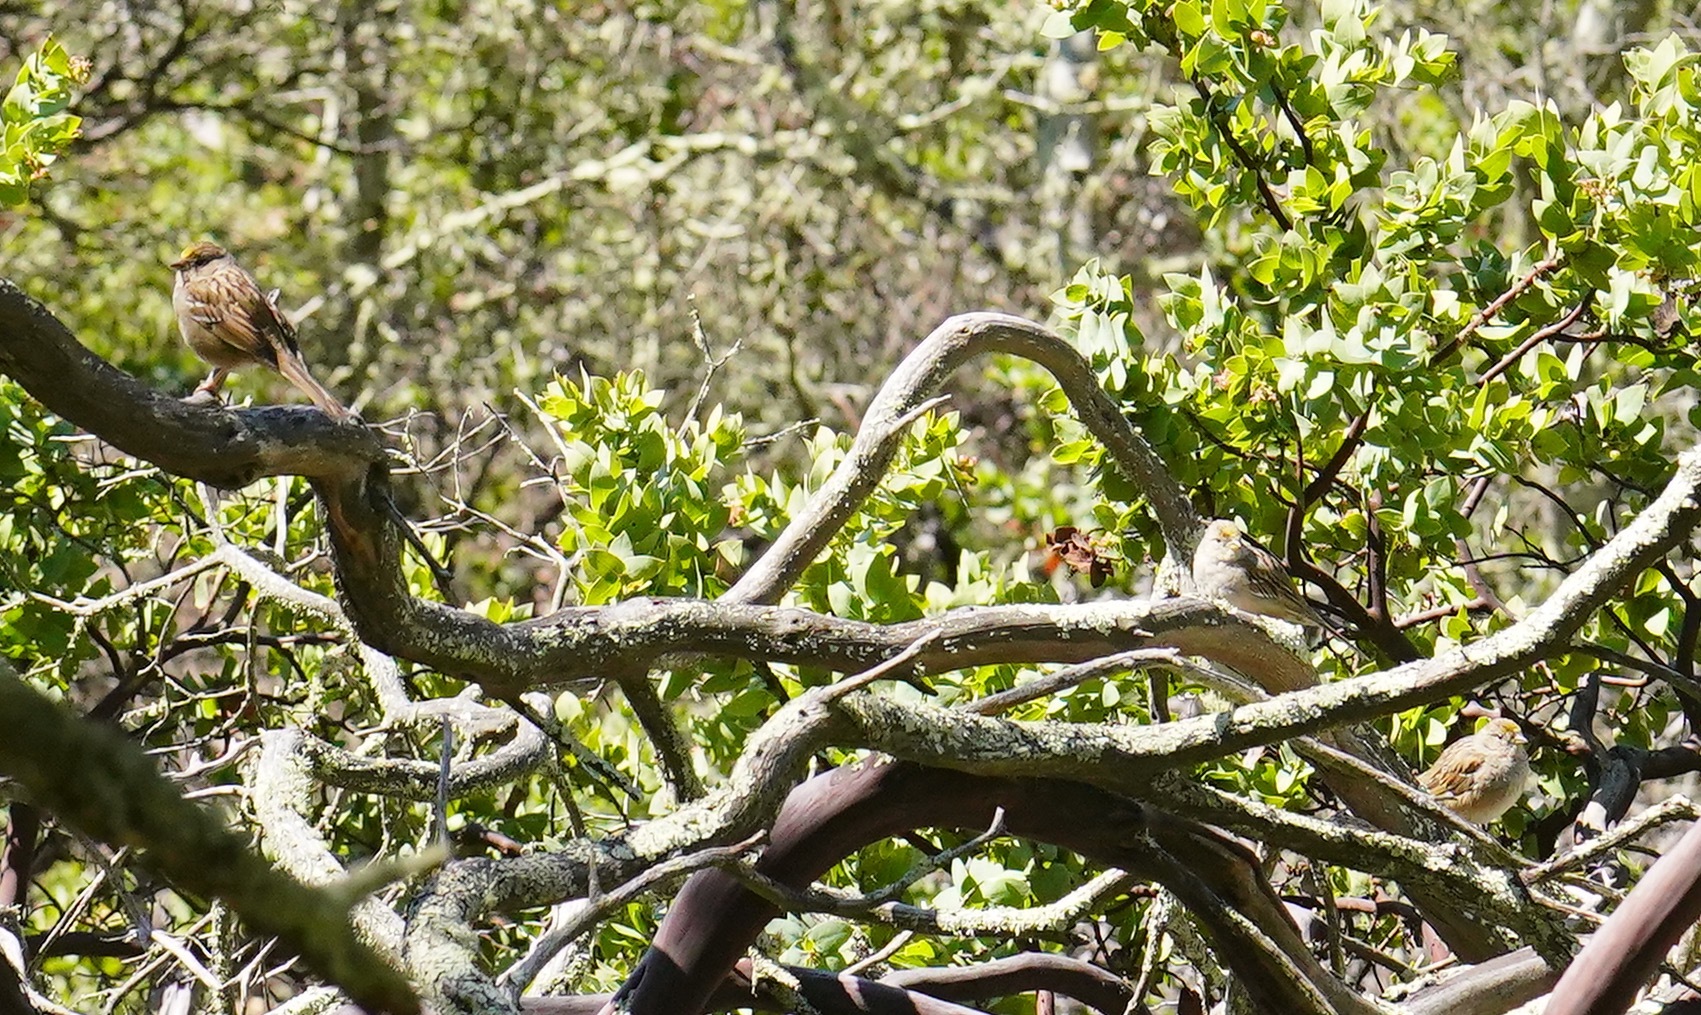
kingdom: Animalia
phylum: Chordata
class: Aves
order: Passeriformes
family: Passerellidae
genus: Zonotrichia
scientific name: Zonotrichia atricapilla
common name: Golden-crowned sparrow
